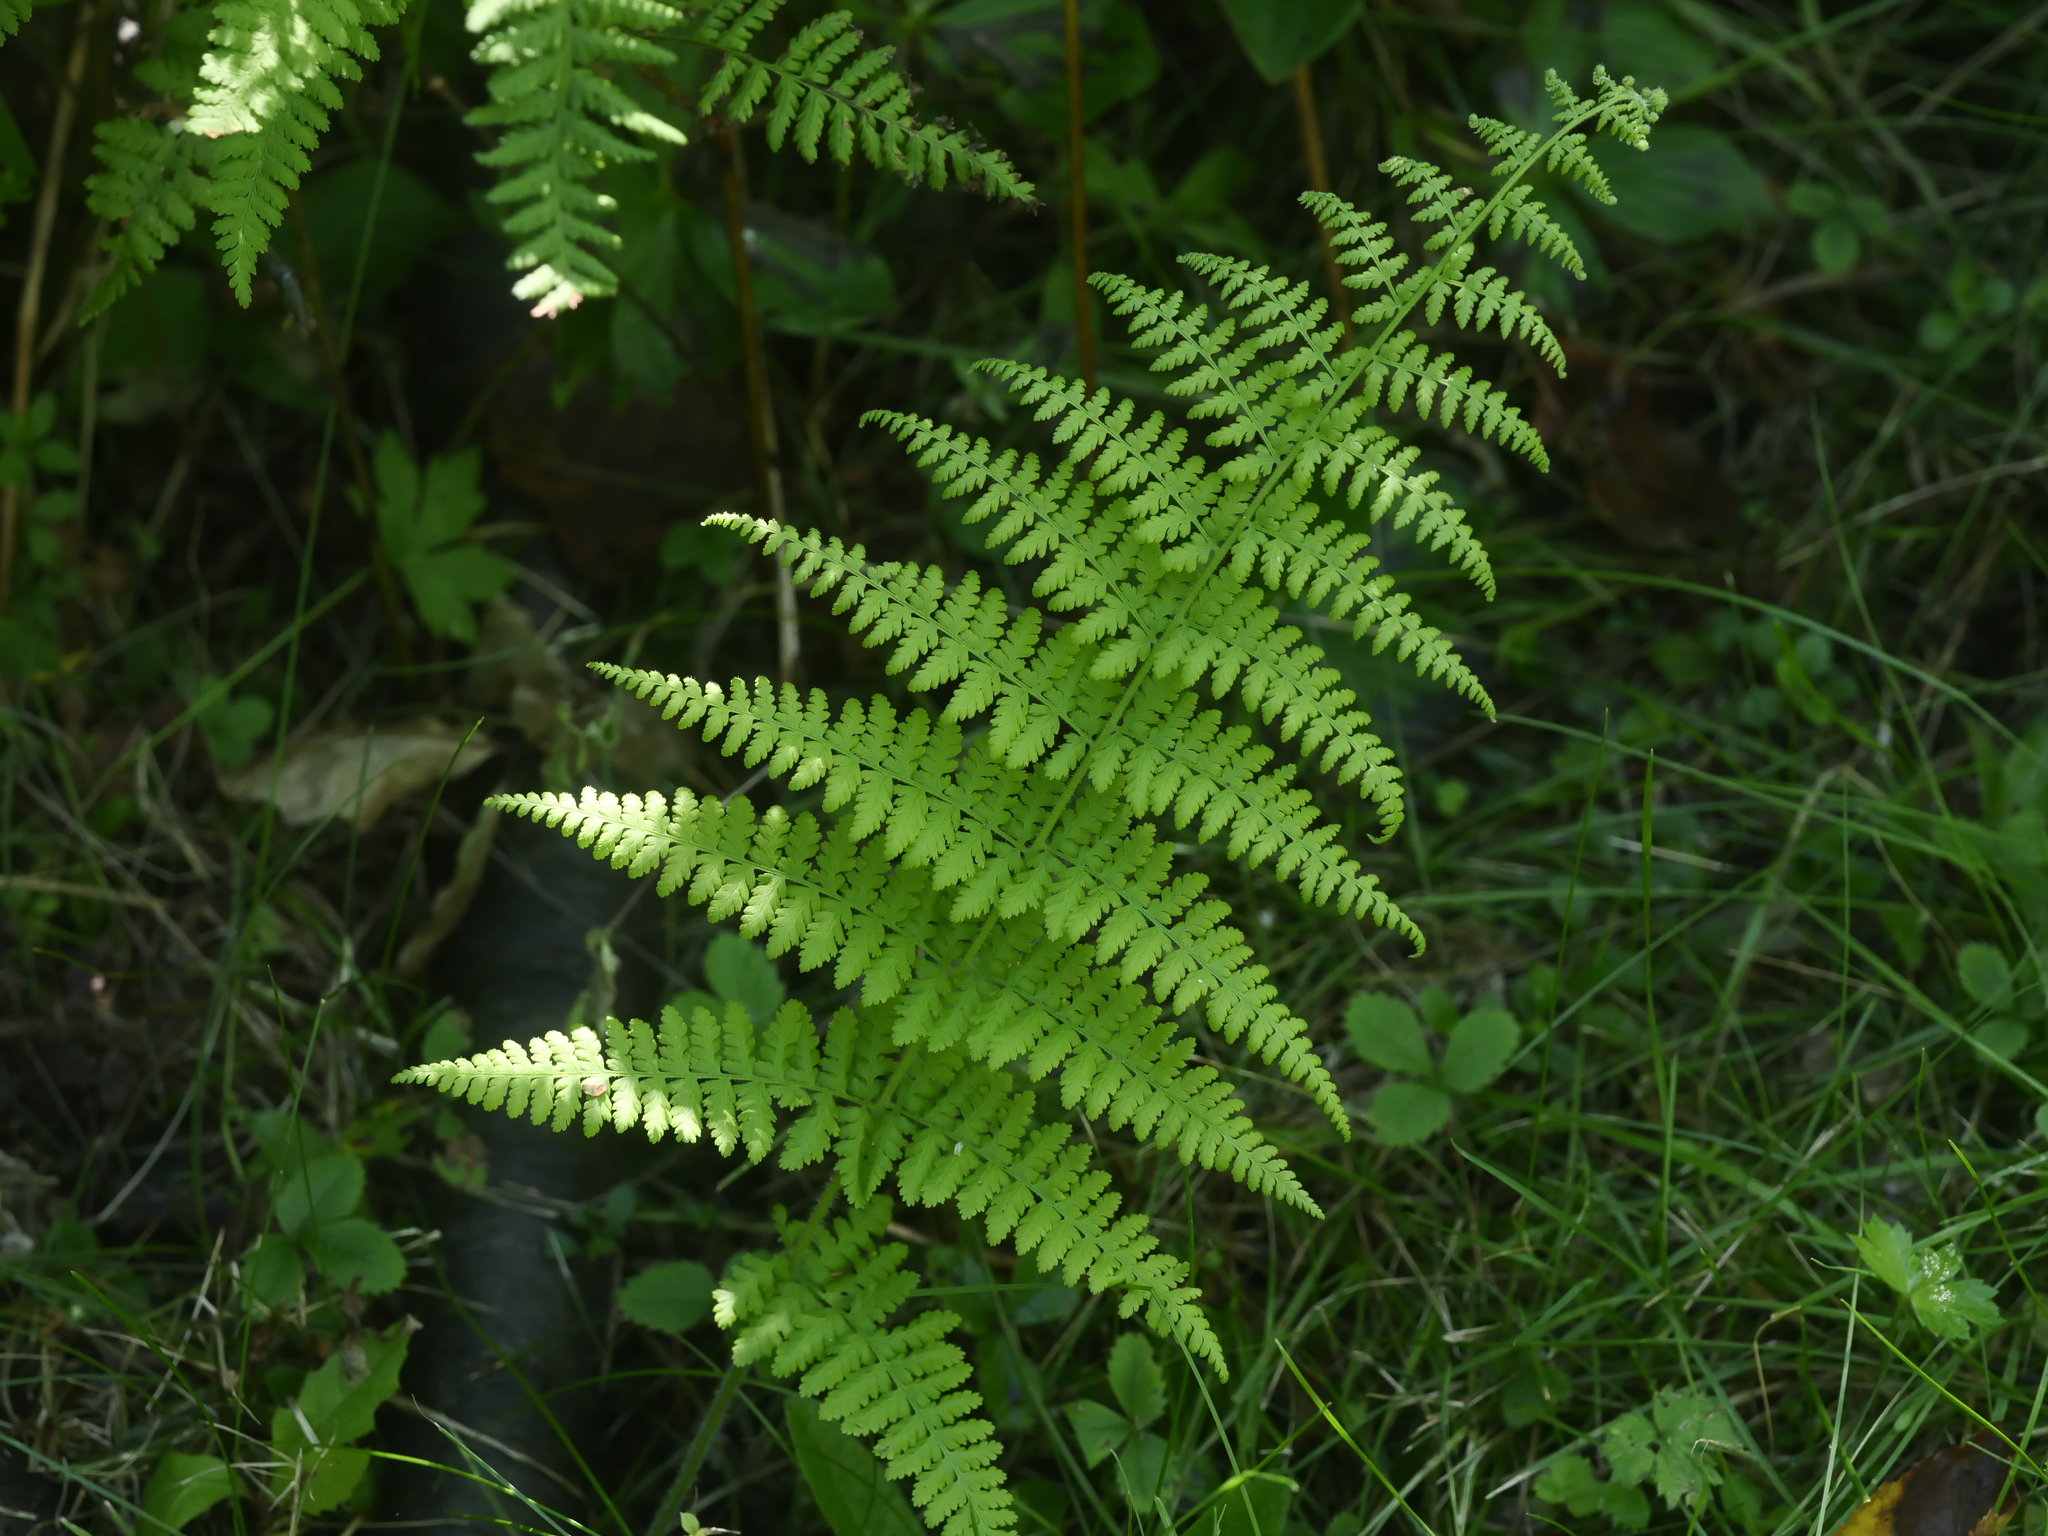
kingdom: Plantae
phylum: Tracheophyta
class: Polypodiopsida
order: Polypodiales
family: Dennstaedtiaceae
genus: Sitobolium
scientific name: Sitobolium punctilobum
